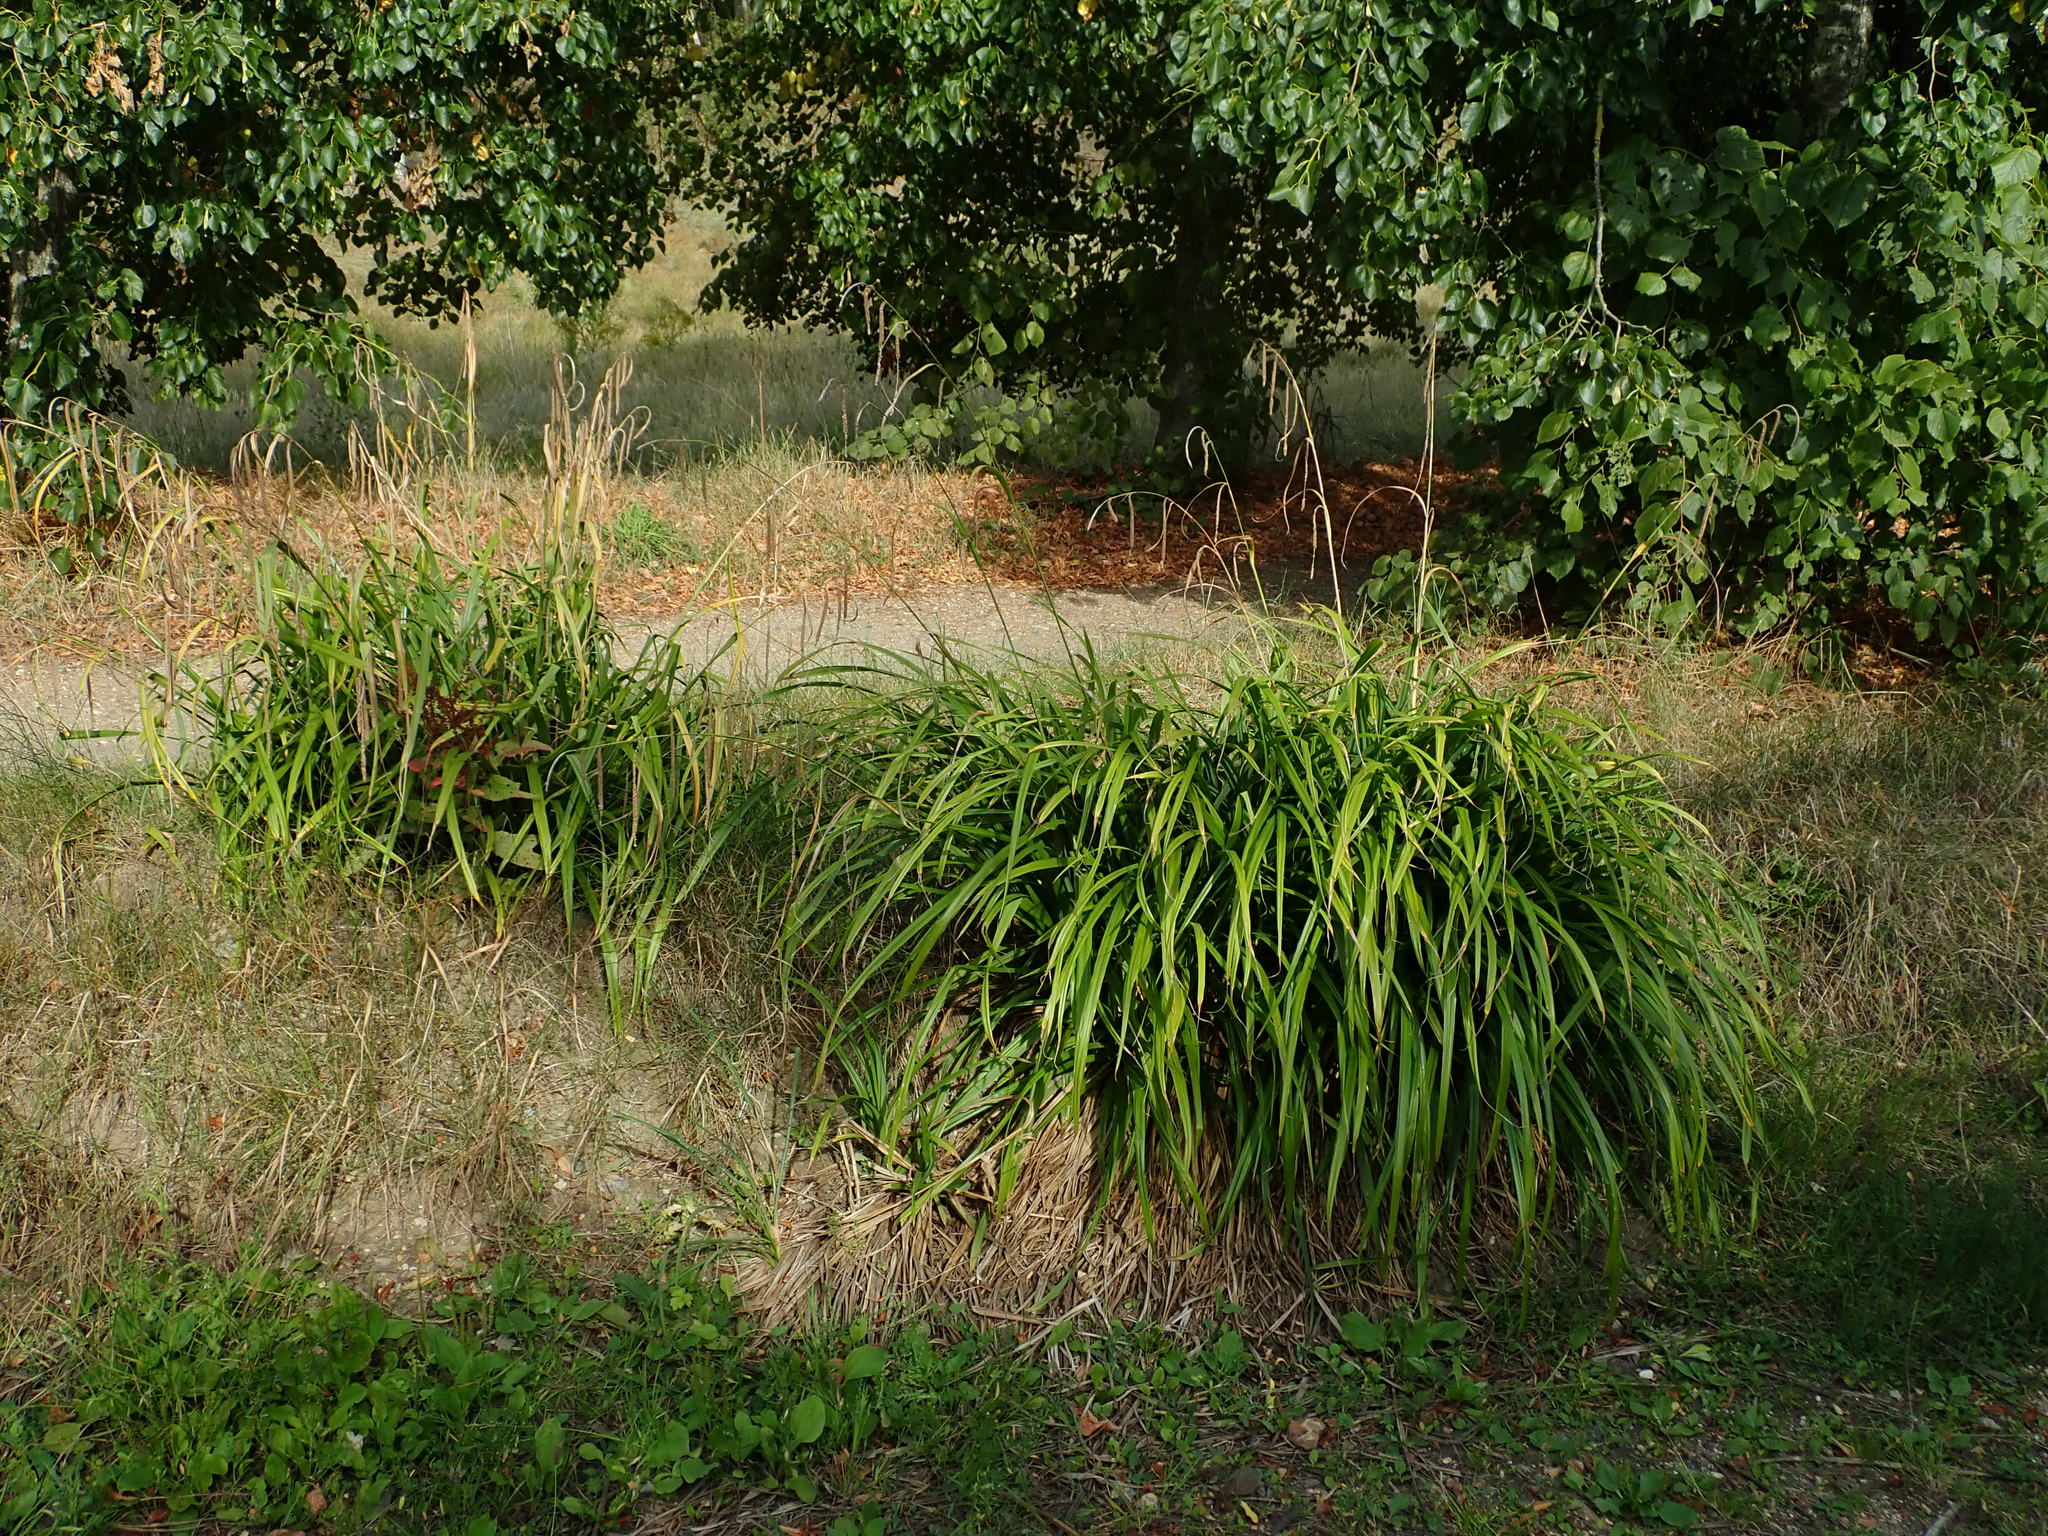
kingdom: Plantae
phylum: Tracheophyta
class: Liliopsida
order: Poales
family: Cyperaceae
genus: Carex
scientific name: Carex pendula
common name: Pendulous sedge
